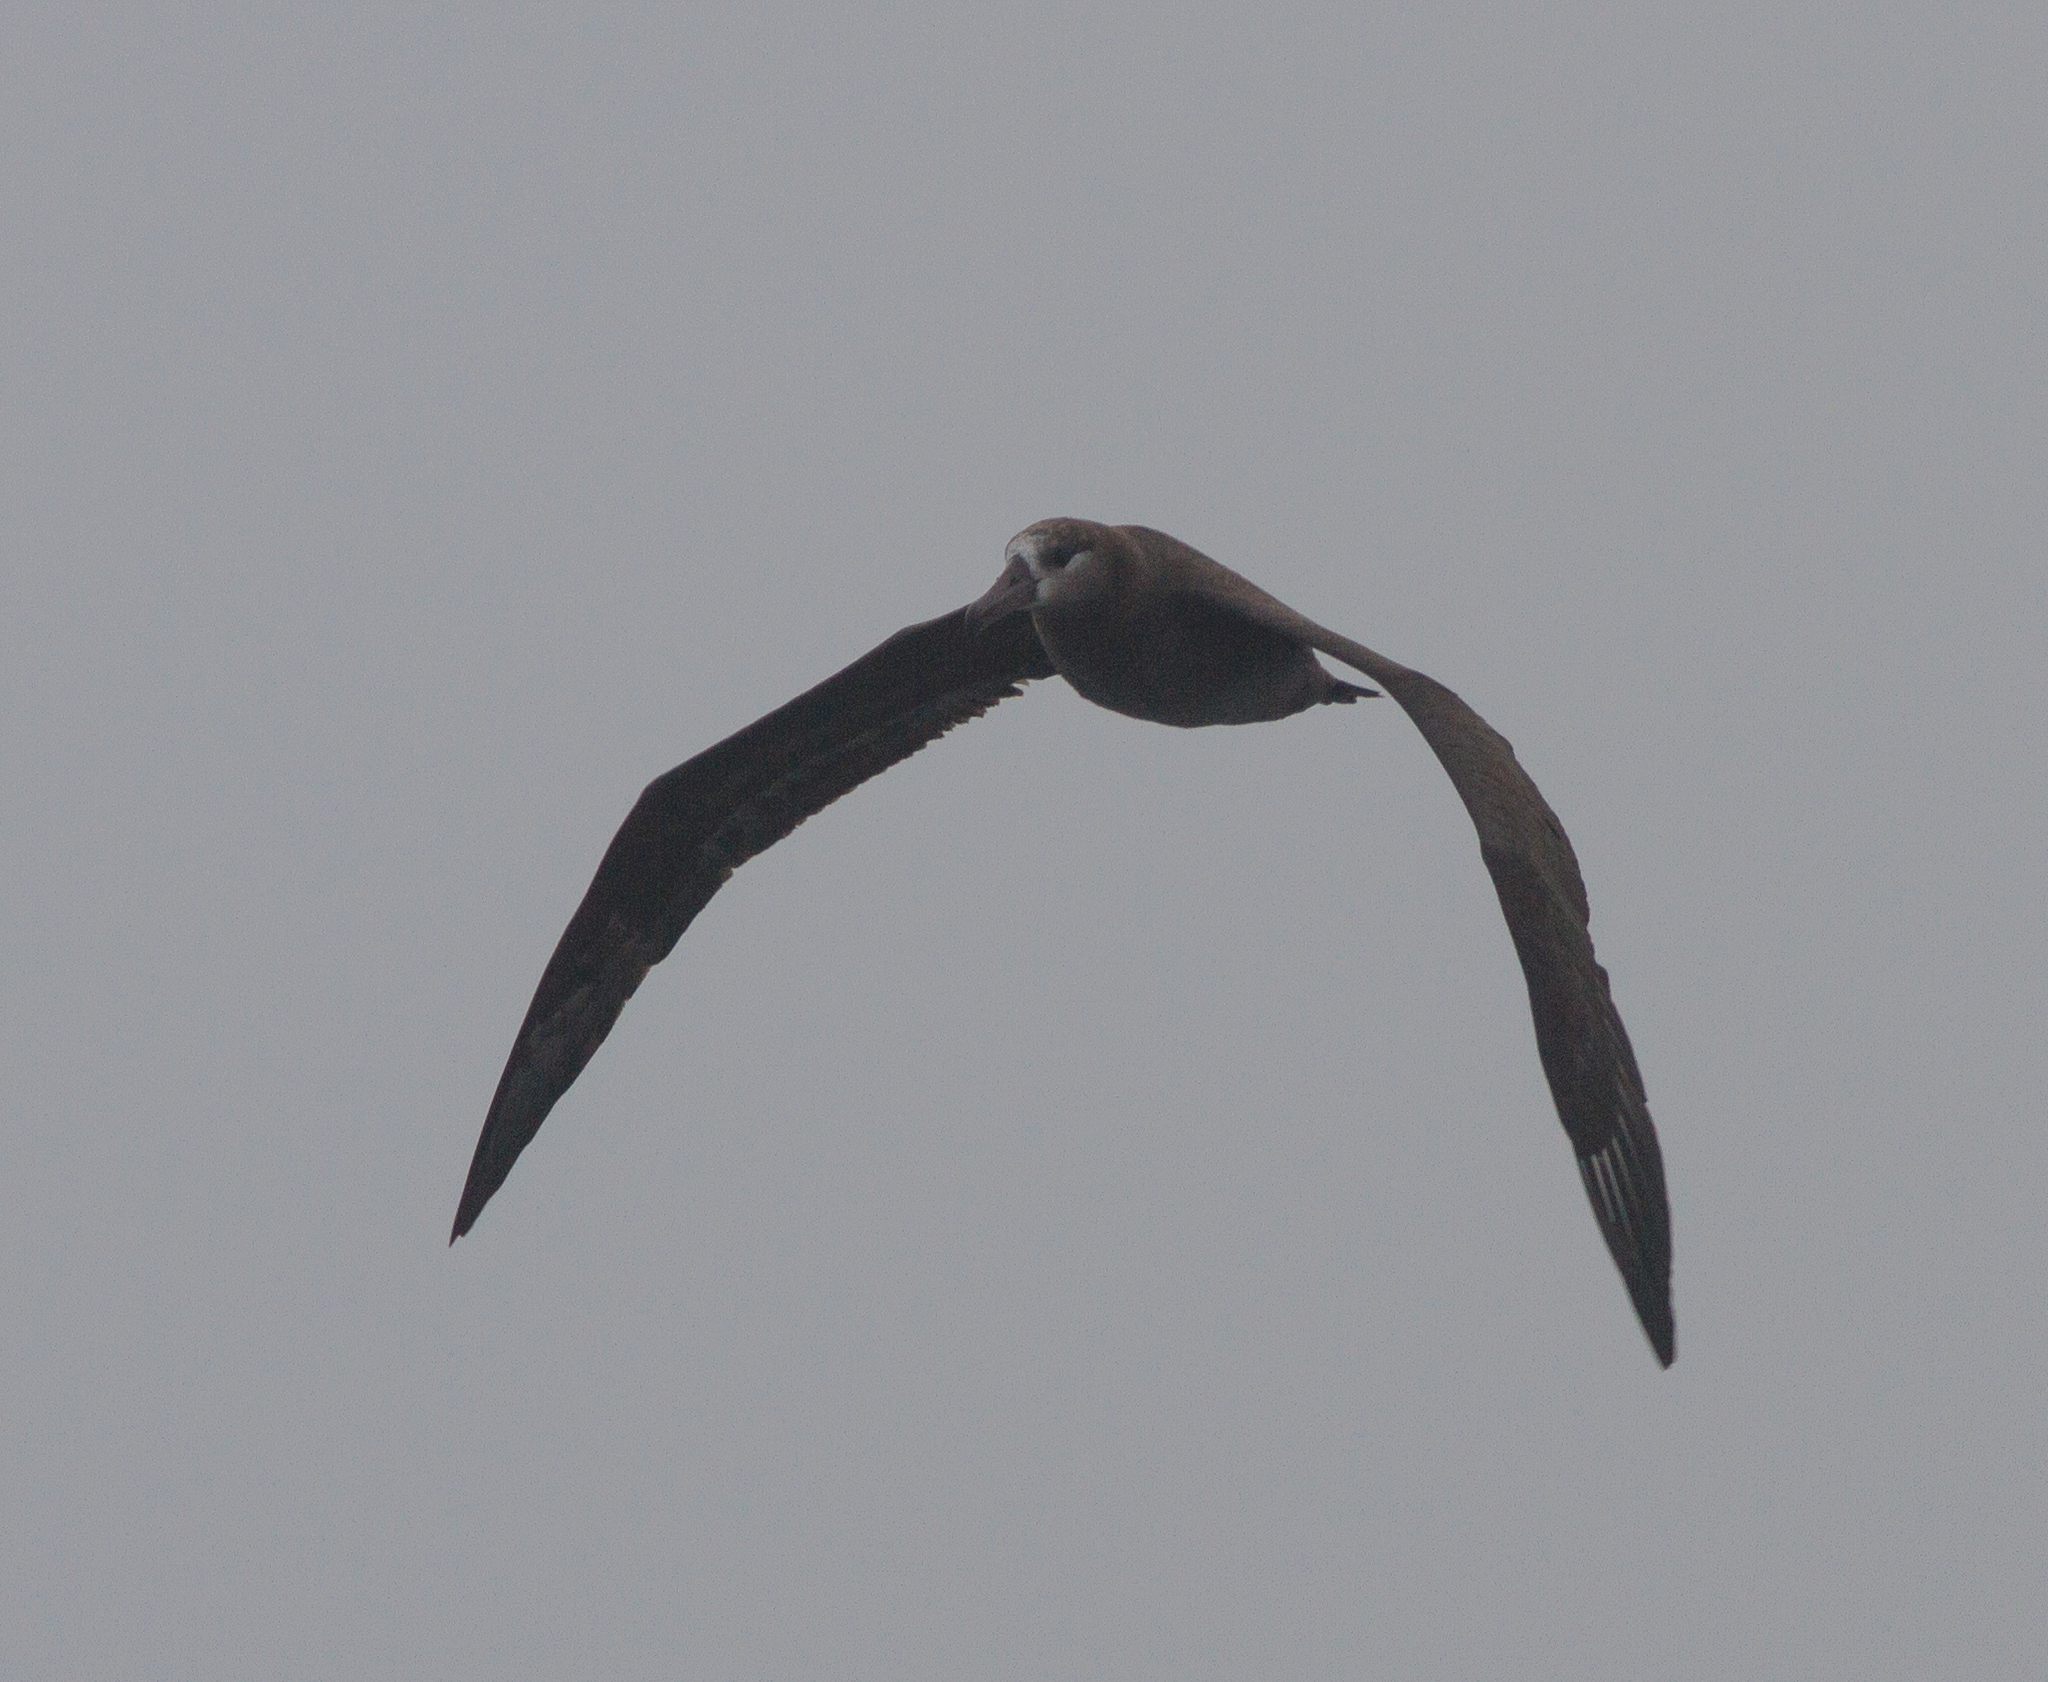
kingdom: Animalia
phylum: Chordata
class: Aves
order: Procellariiformes
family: Diomedeidae
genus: Phoebastria
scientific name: Phoebastria nigripes
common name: Black-footed albatross
